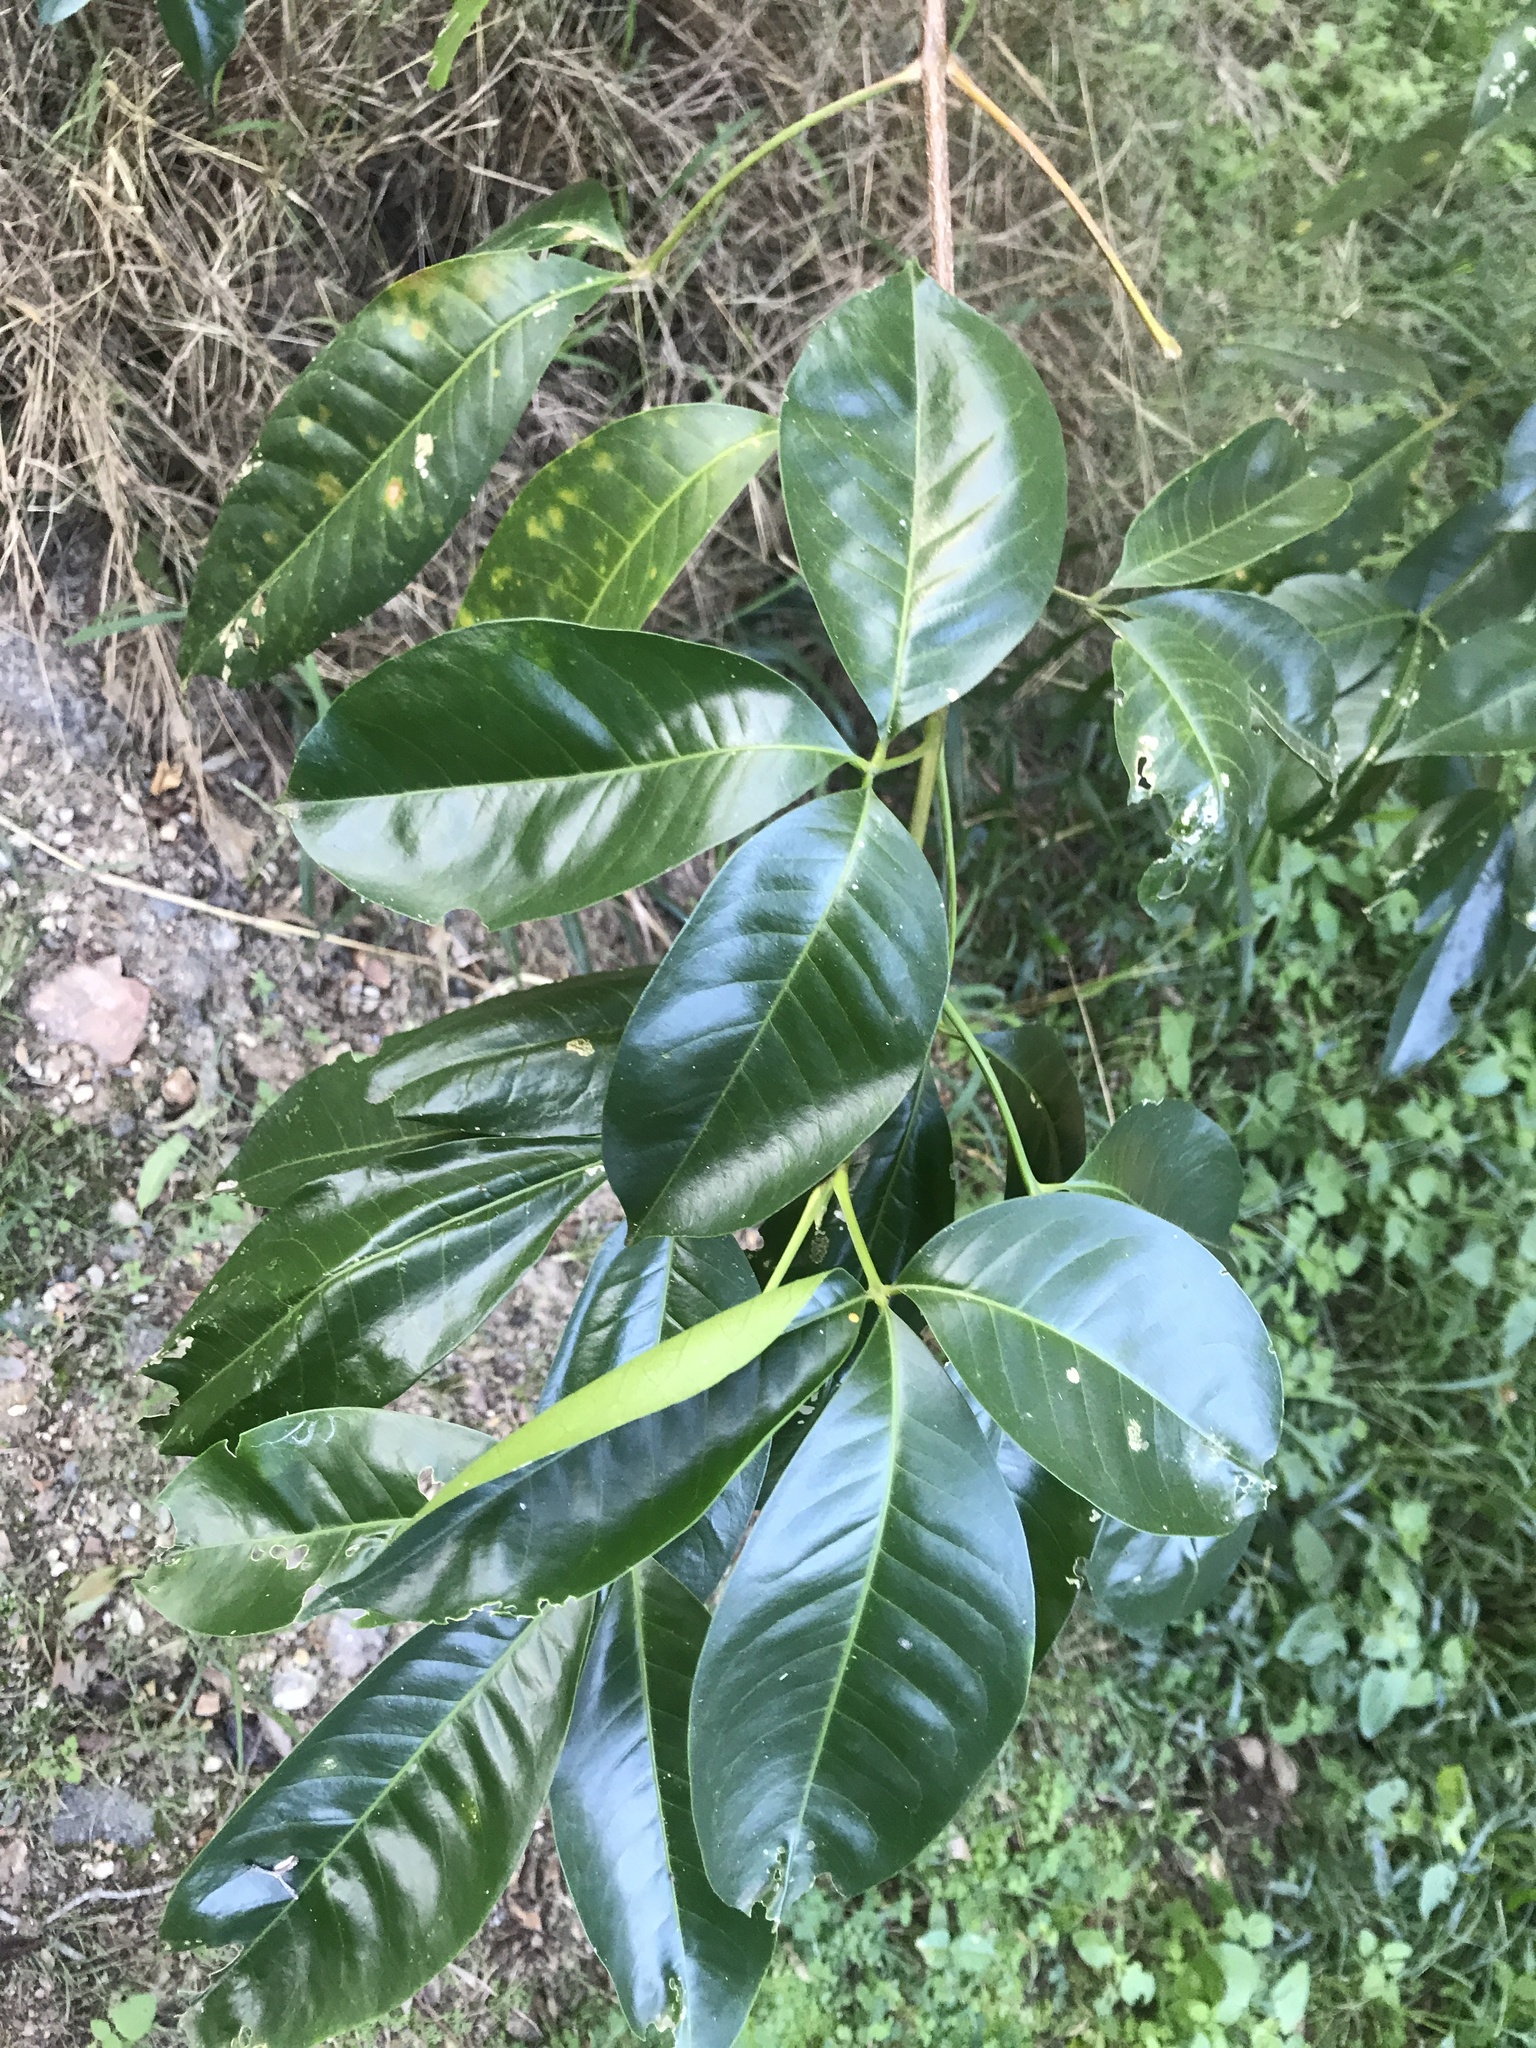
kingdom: Plantae
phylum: Tracheophyta
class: Magnoliopsida
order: Sapindales
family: Rutaceae
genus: Melicope
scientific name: Melicope elleryana
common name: Pink euodia
